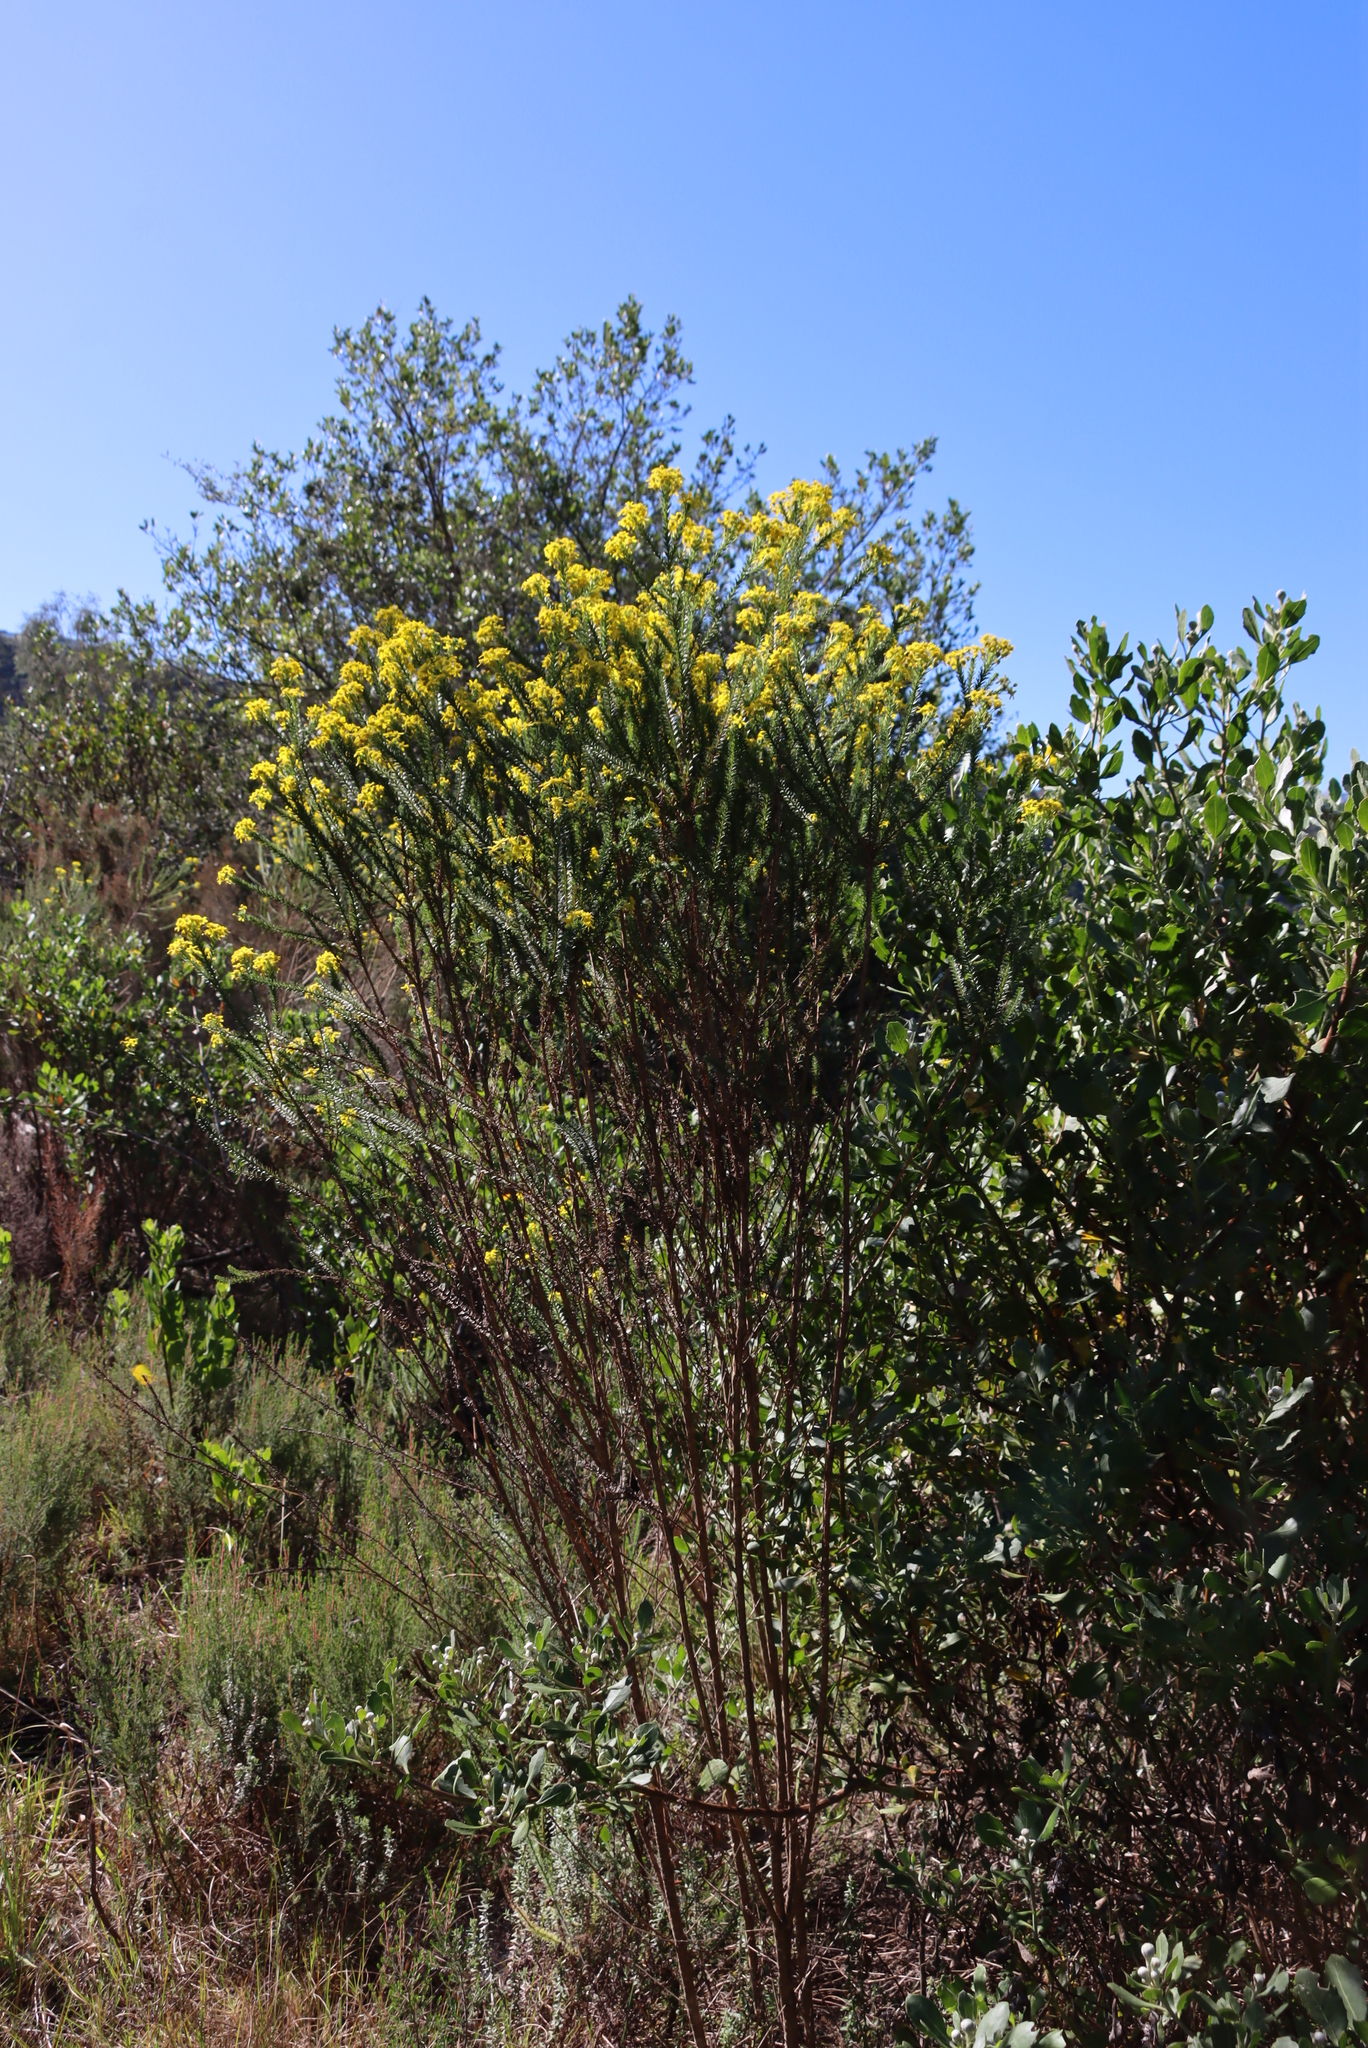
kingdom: Plantae
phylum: Tracheophyta
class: Magnoliopsida
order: Asterales
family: Asteraceae
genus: Euryops
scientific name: Euryops virgineus
